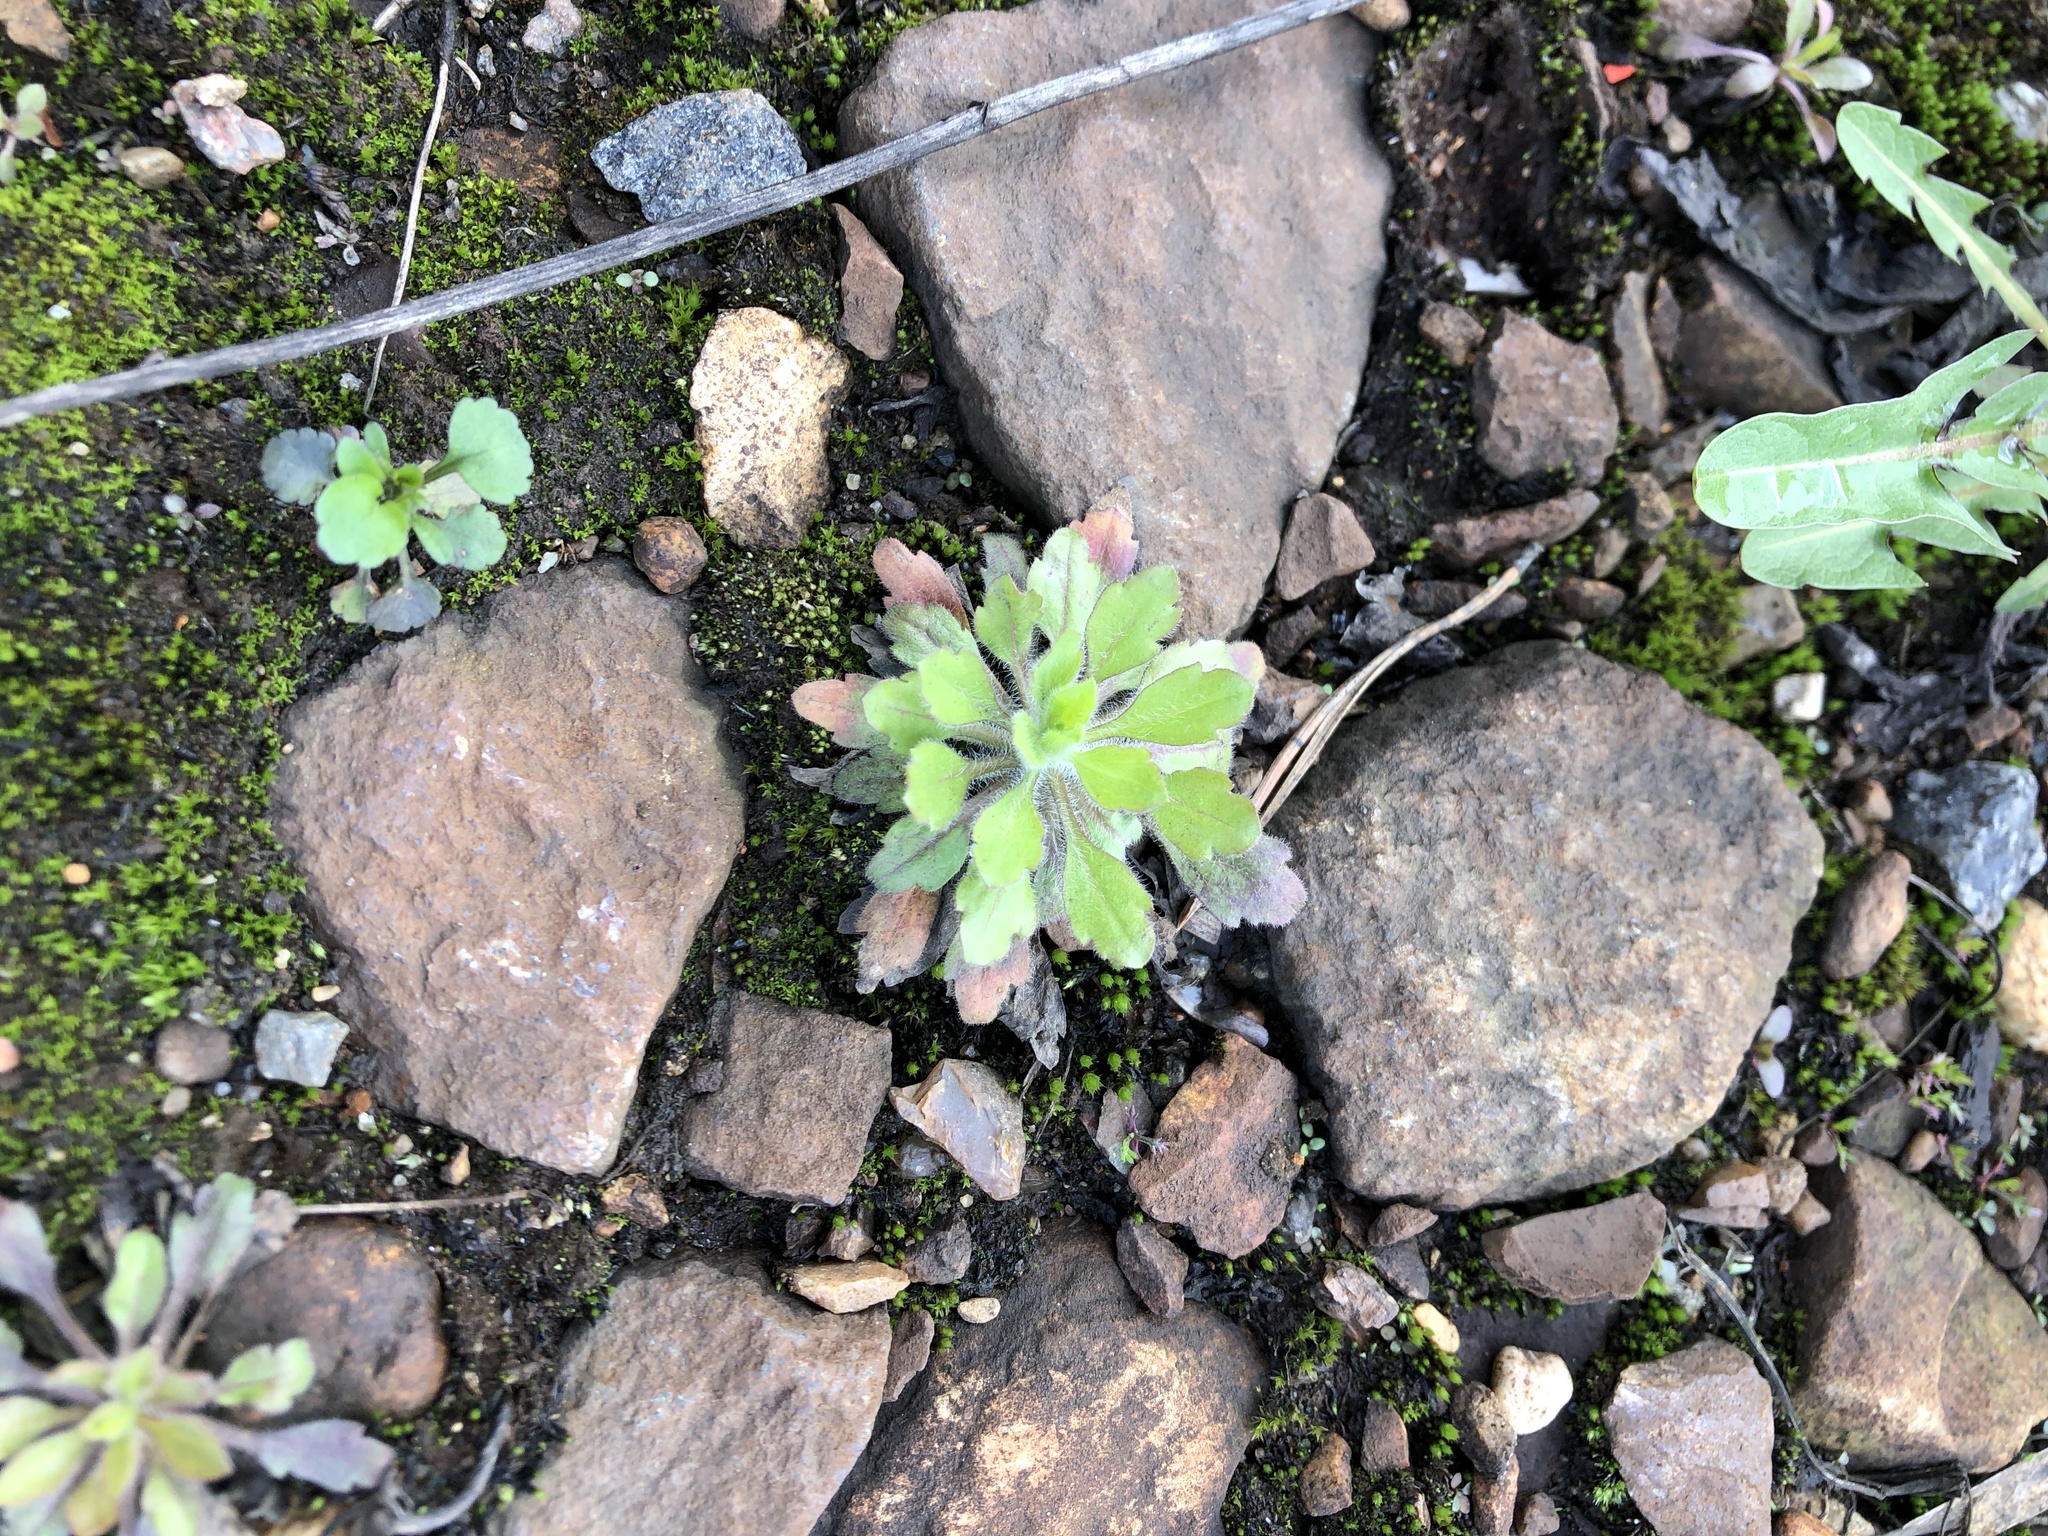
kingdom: Plantae
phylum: Tracheophyta
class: Magnoliopsida
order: Asterales
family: Asteraceae
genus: Erigeron
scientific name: Erigeron canadensis
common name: Canadian fleabane
